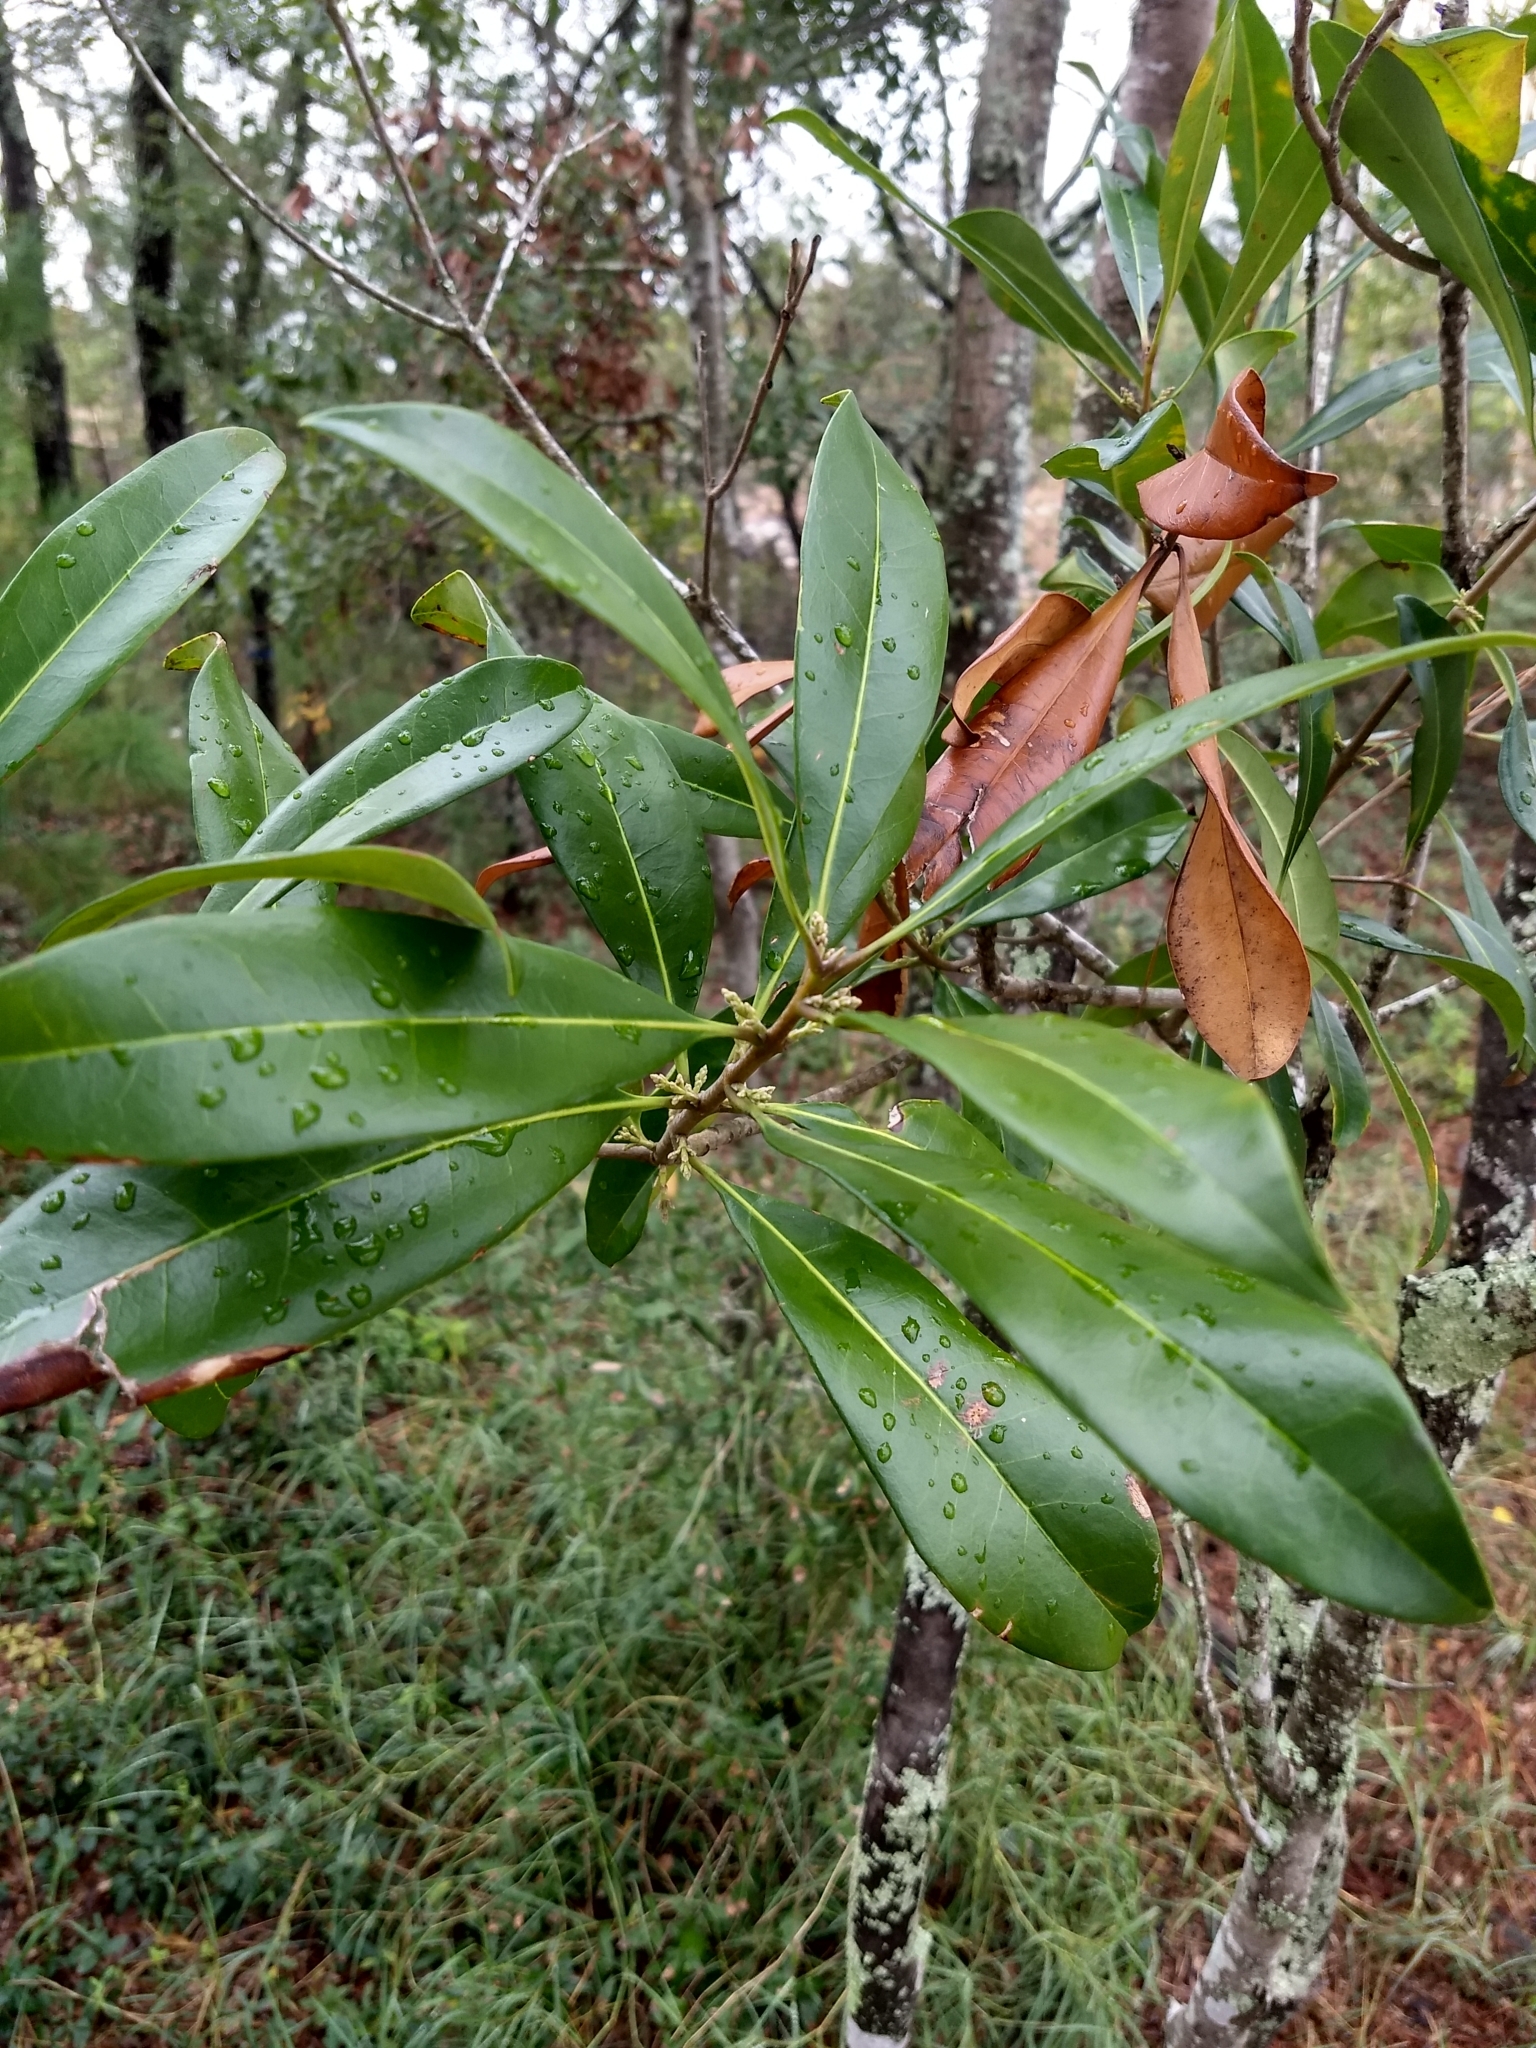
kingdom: Plantae
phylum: Tracheophyta
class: Magnoliopsida
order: Lamiales
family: Oleaceae
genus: Cartrema
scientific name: Cartrema americana
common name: Devilwood
